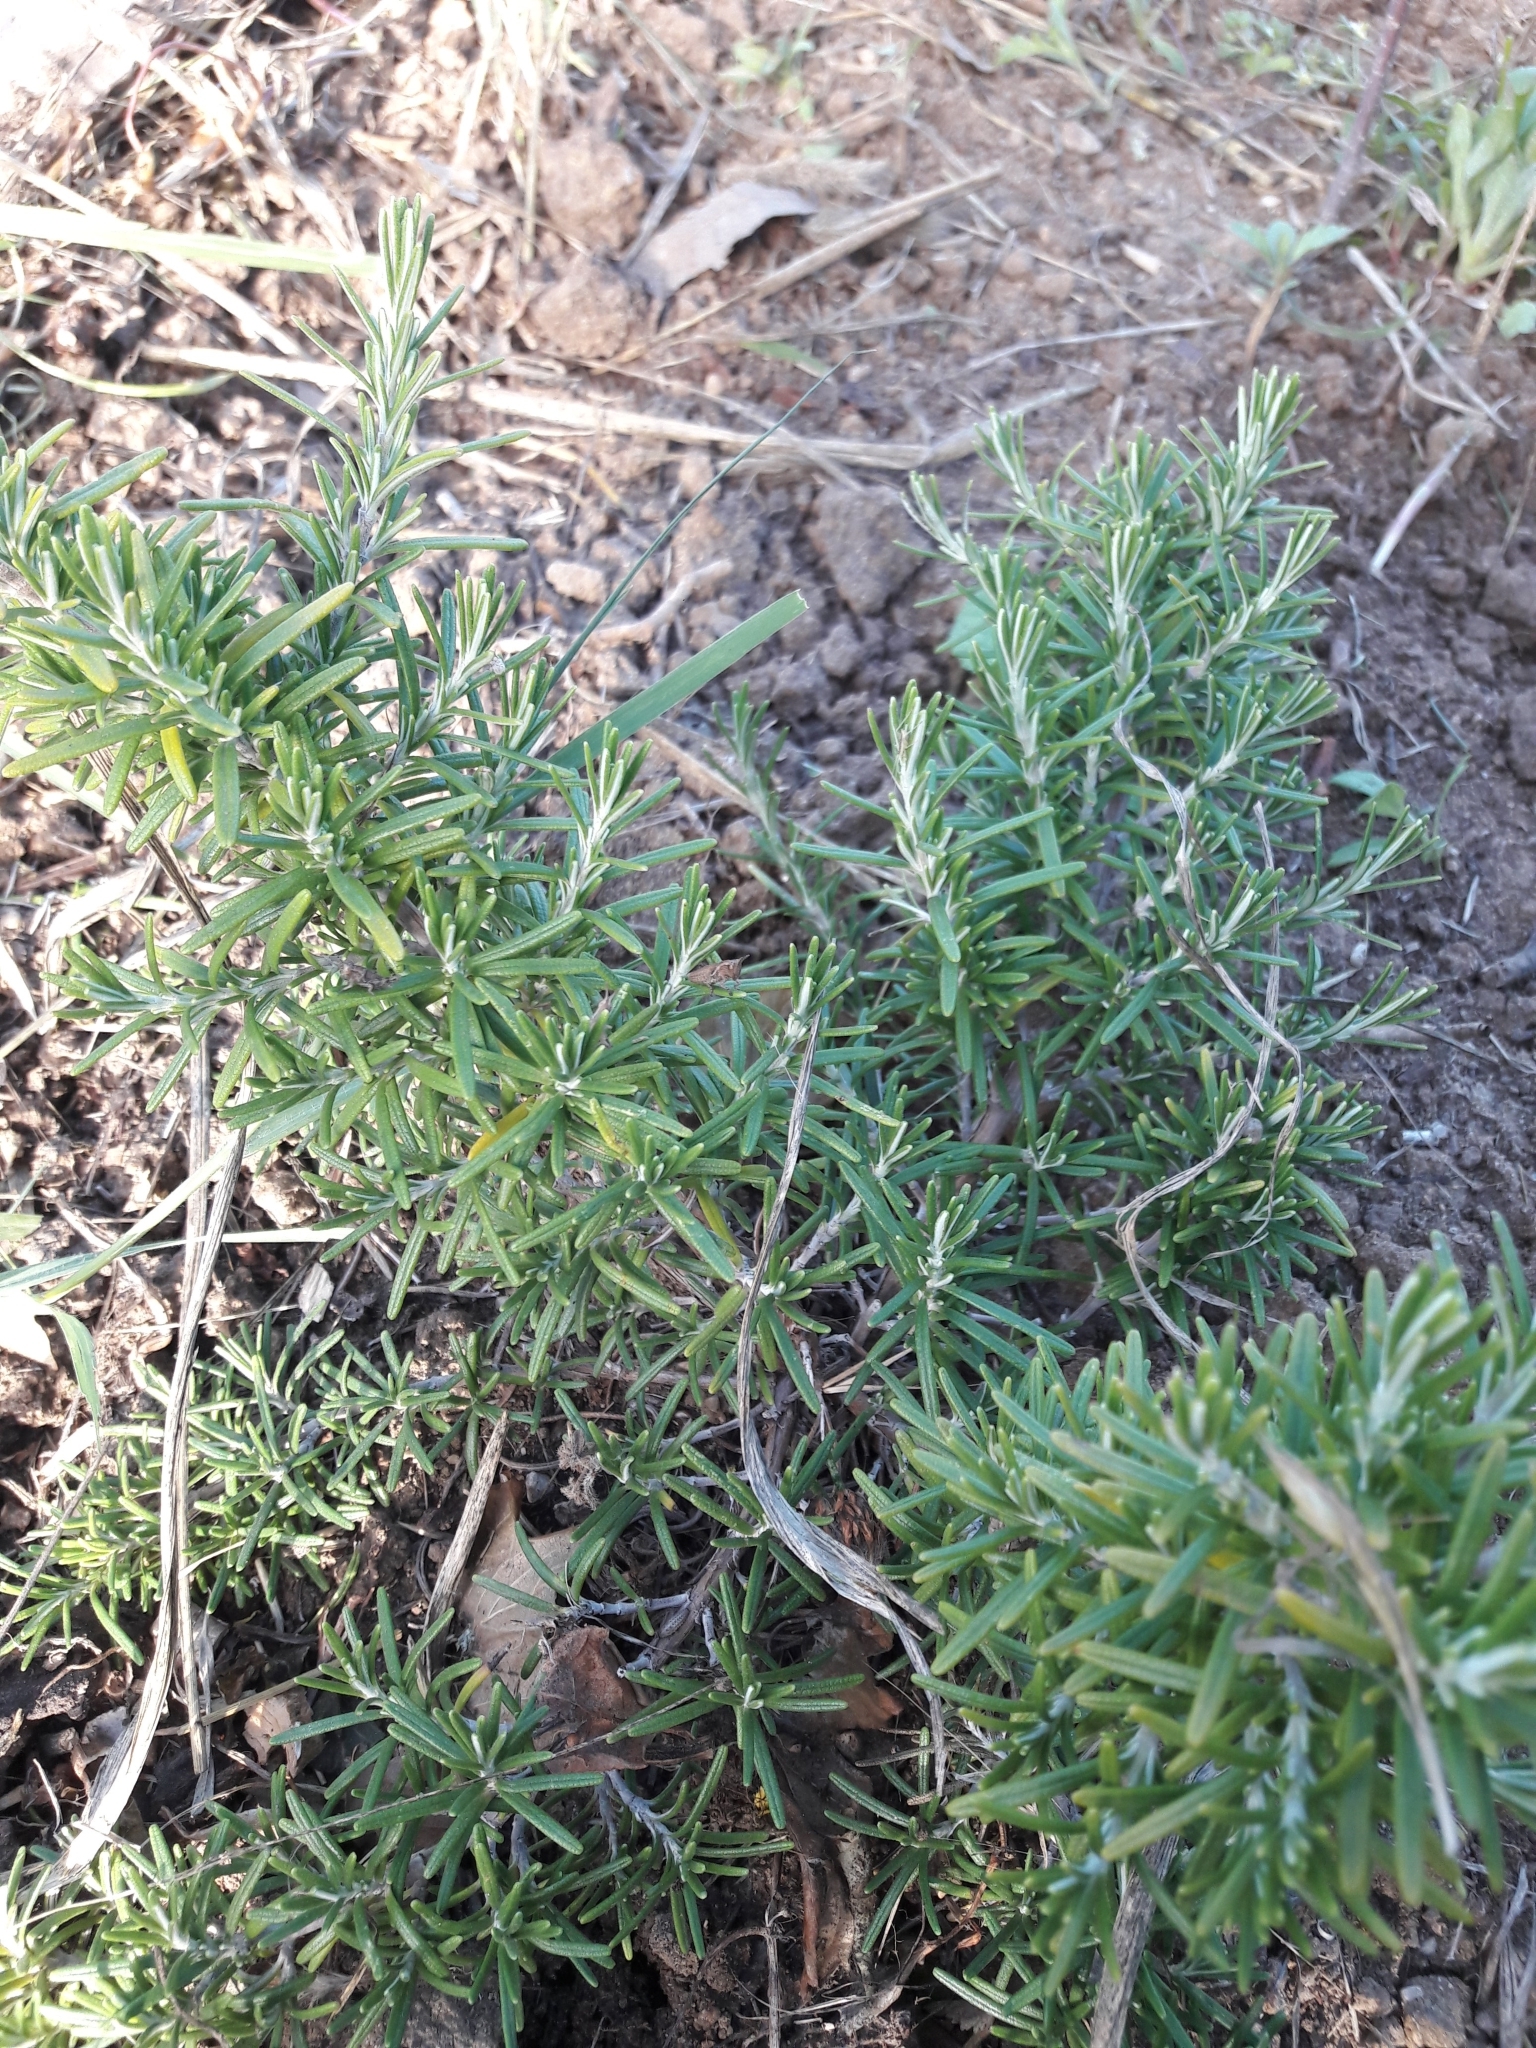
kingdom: Plantae
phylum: Tracheophyta
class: Magnoliopsida
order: Lamiales
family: Lamiaceae
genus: Salvia
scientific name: Salvia rosmarinus
